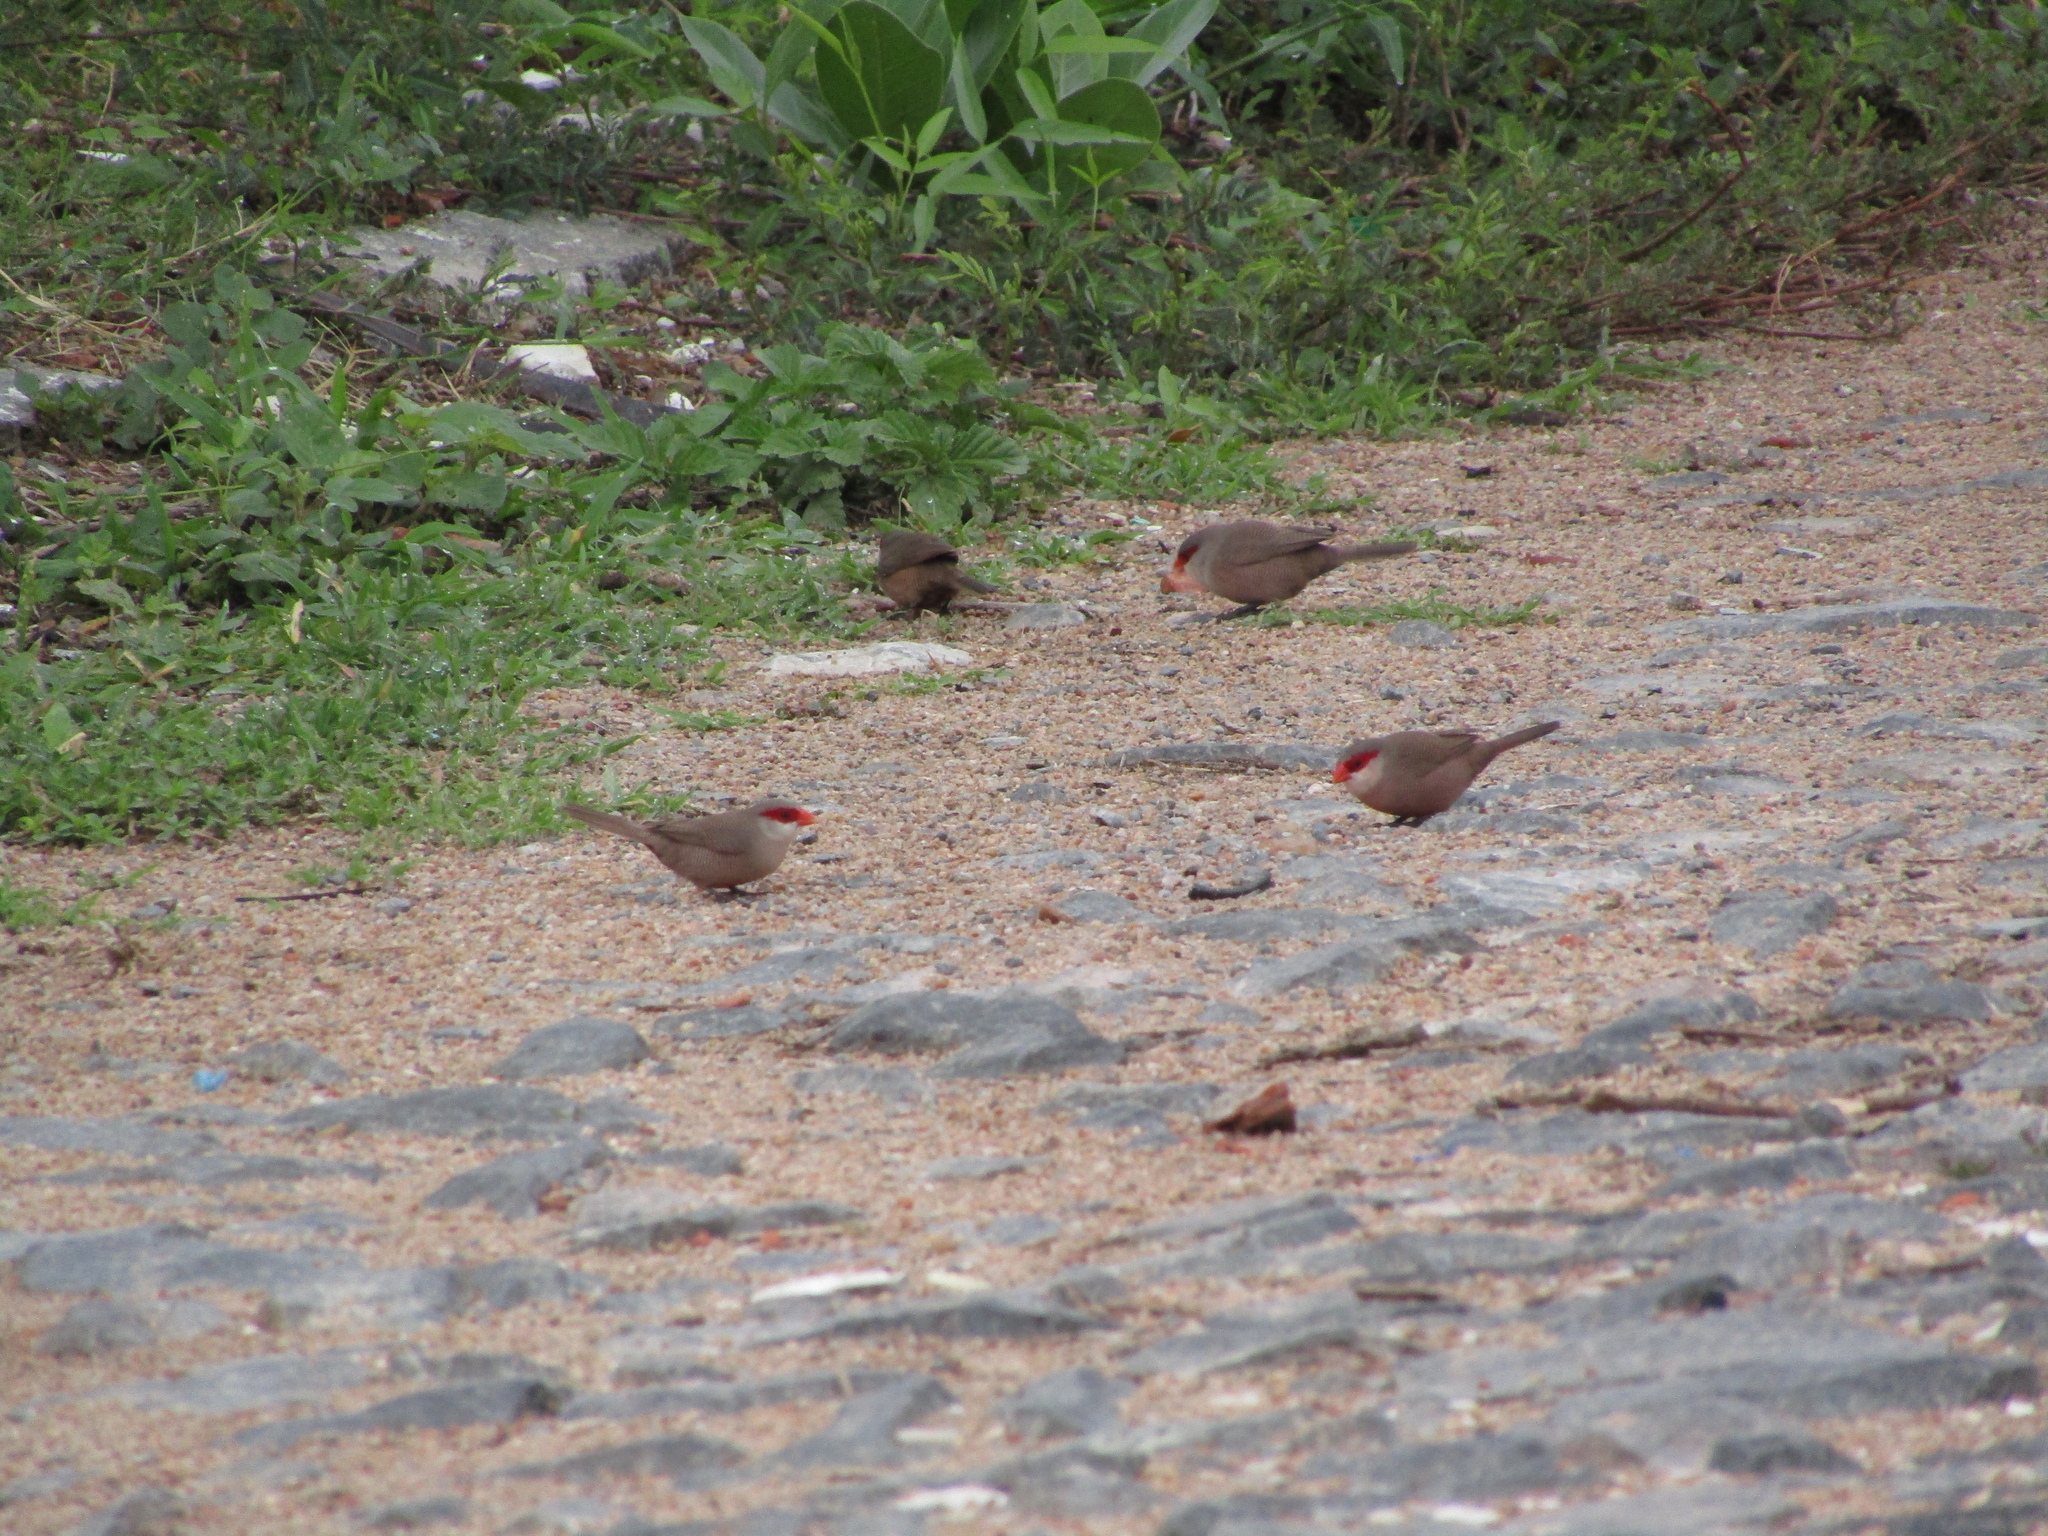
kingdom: Animalia
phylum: Chordata
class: Aves
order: Passeriformes
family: Estrildidae
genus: Estrilda
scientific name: Estrilda astrild
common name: Common waxbill
